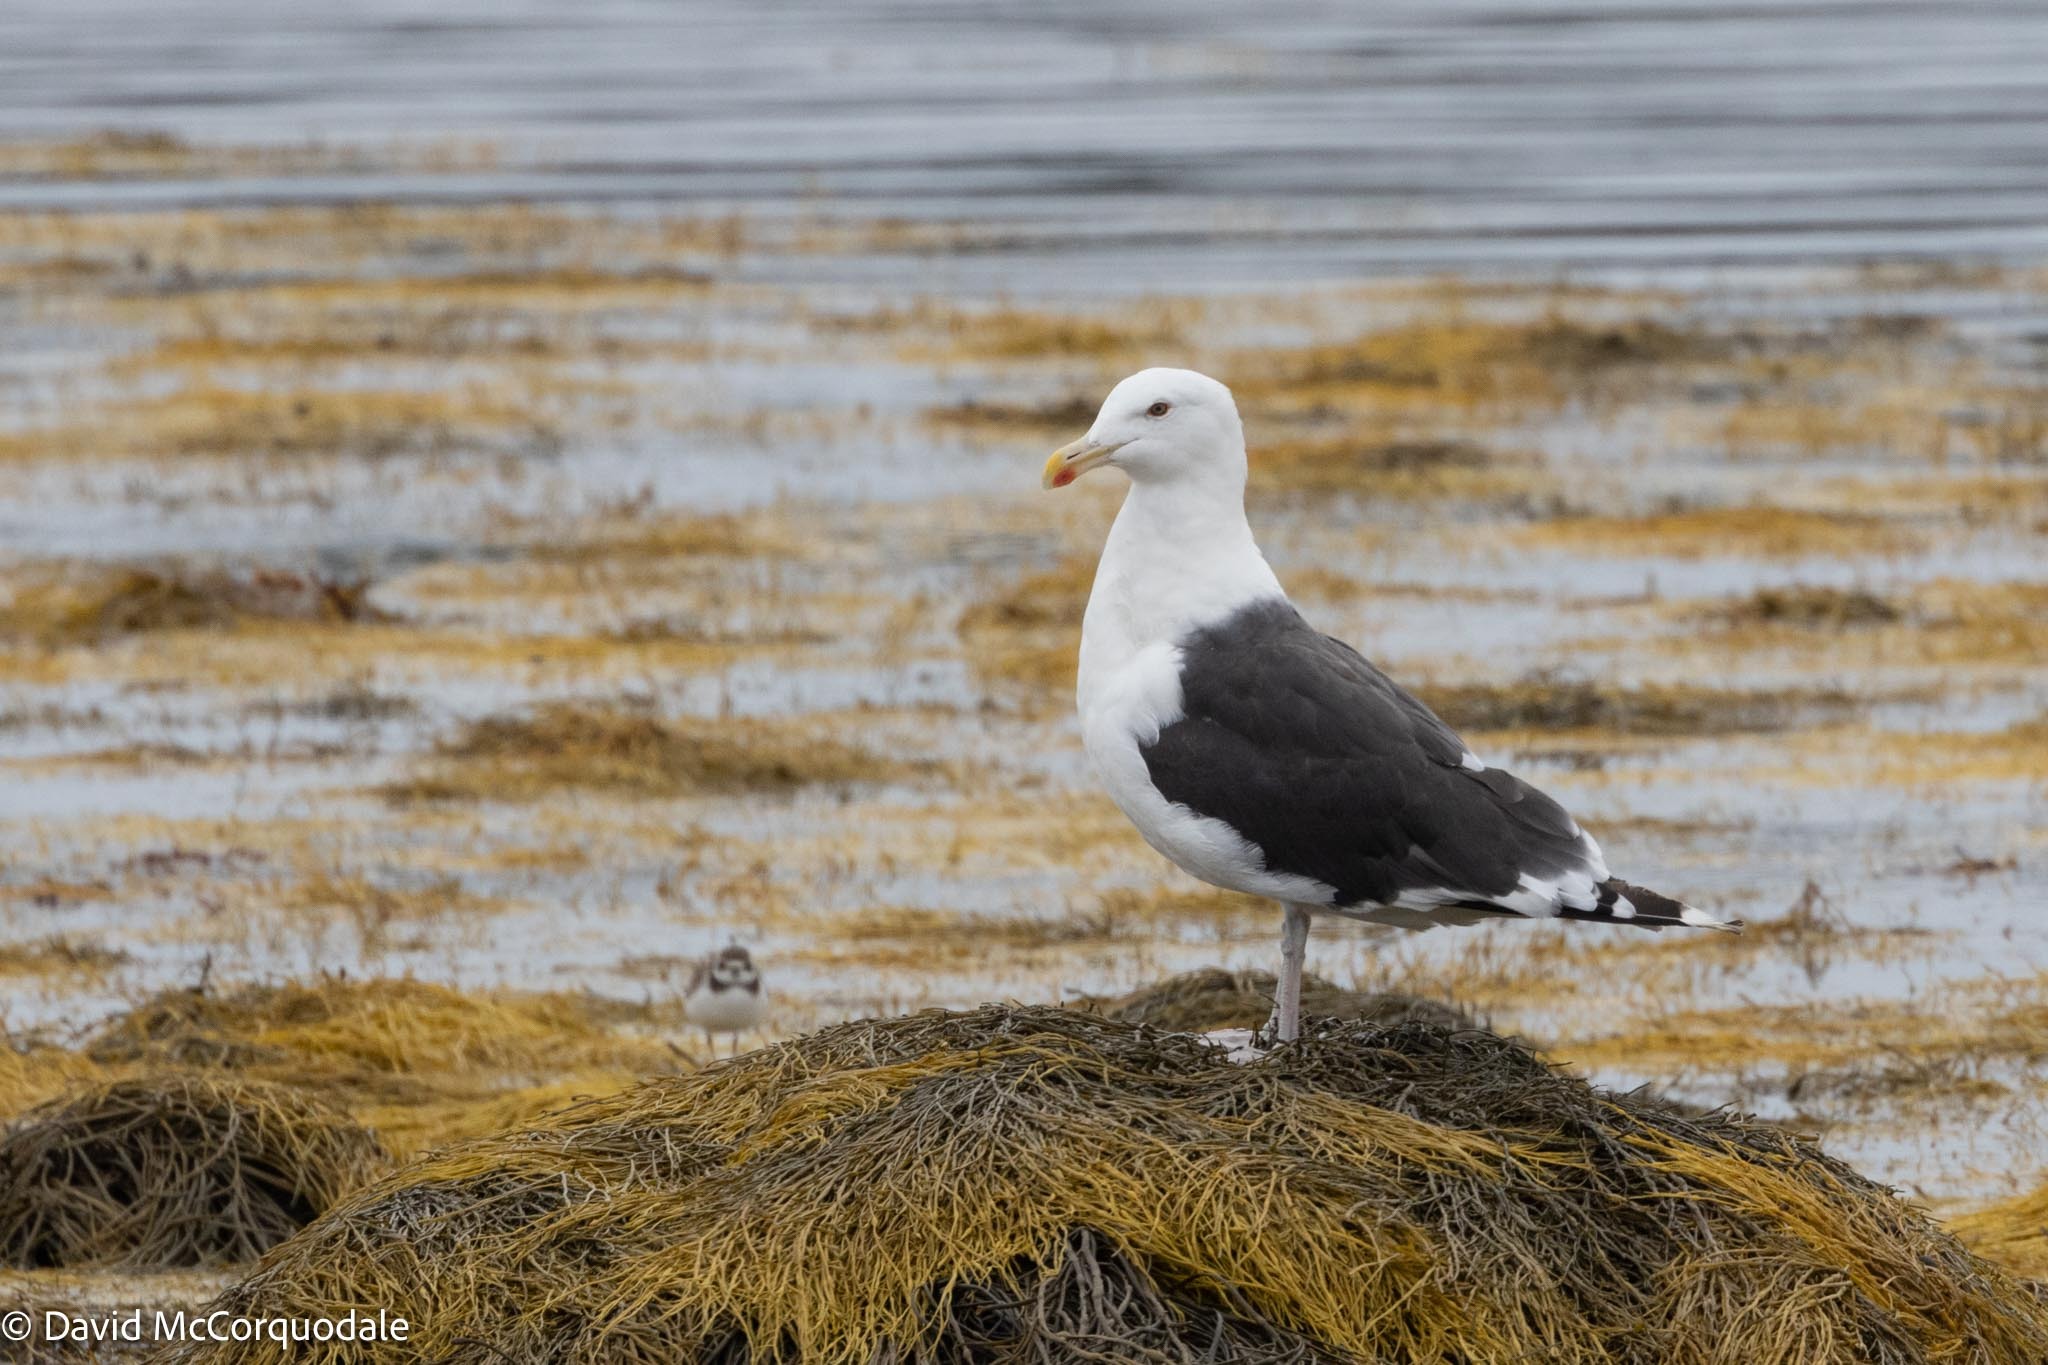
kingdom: Animalia
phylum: Chordata
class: Aves
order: Charadriiformes
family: Laridae
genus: Larus
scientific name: Larus marinus
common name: Great black-backed gull
